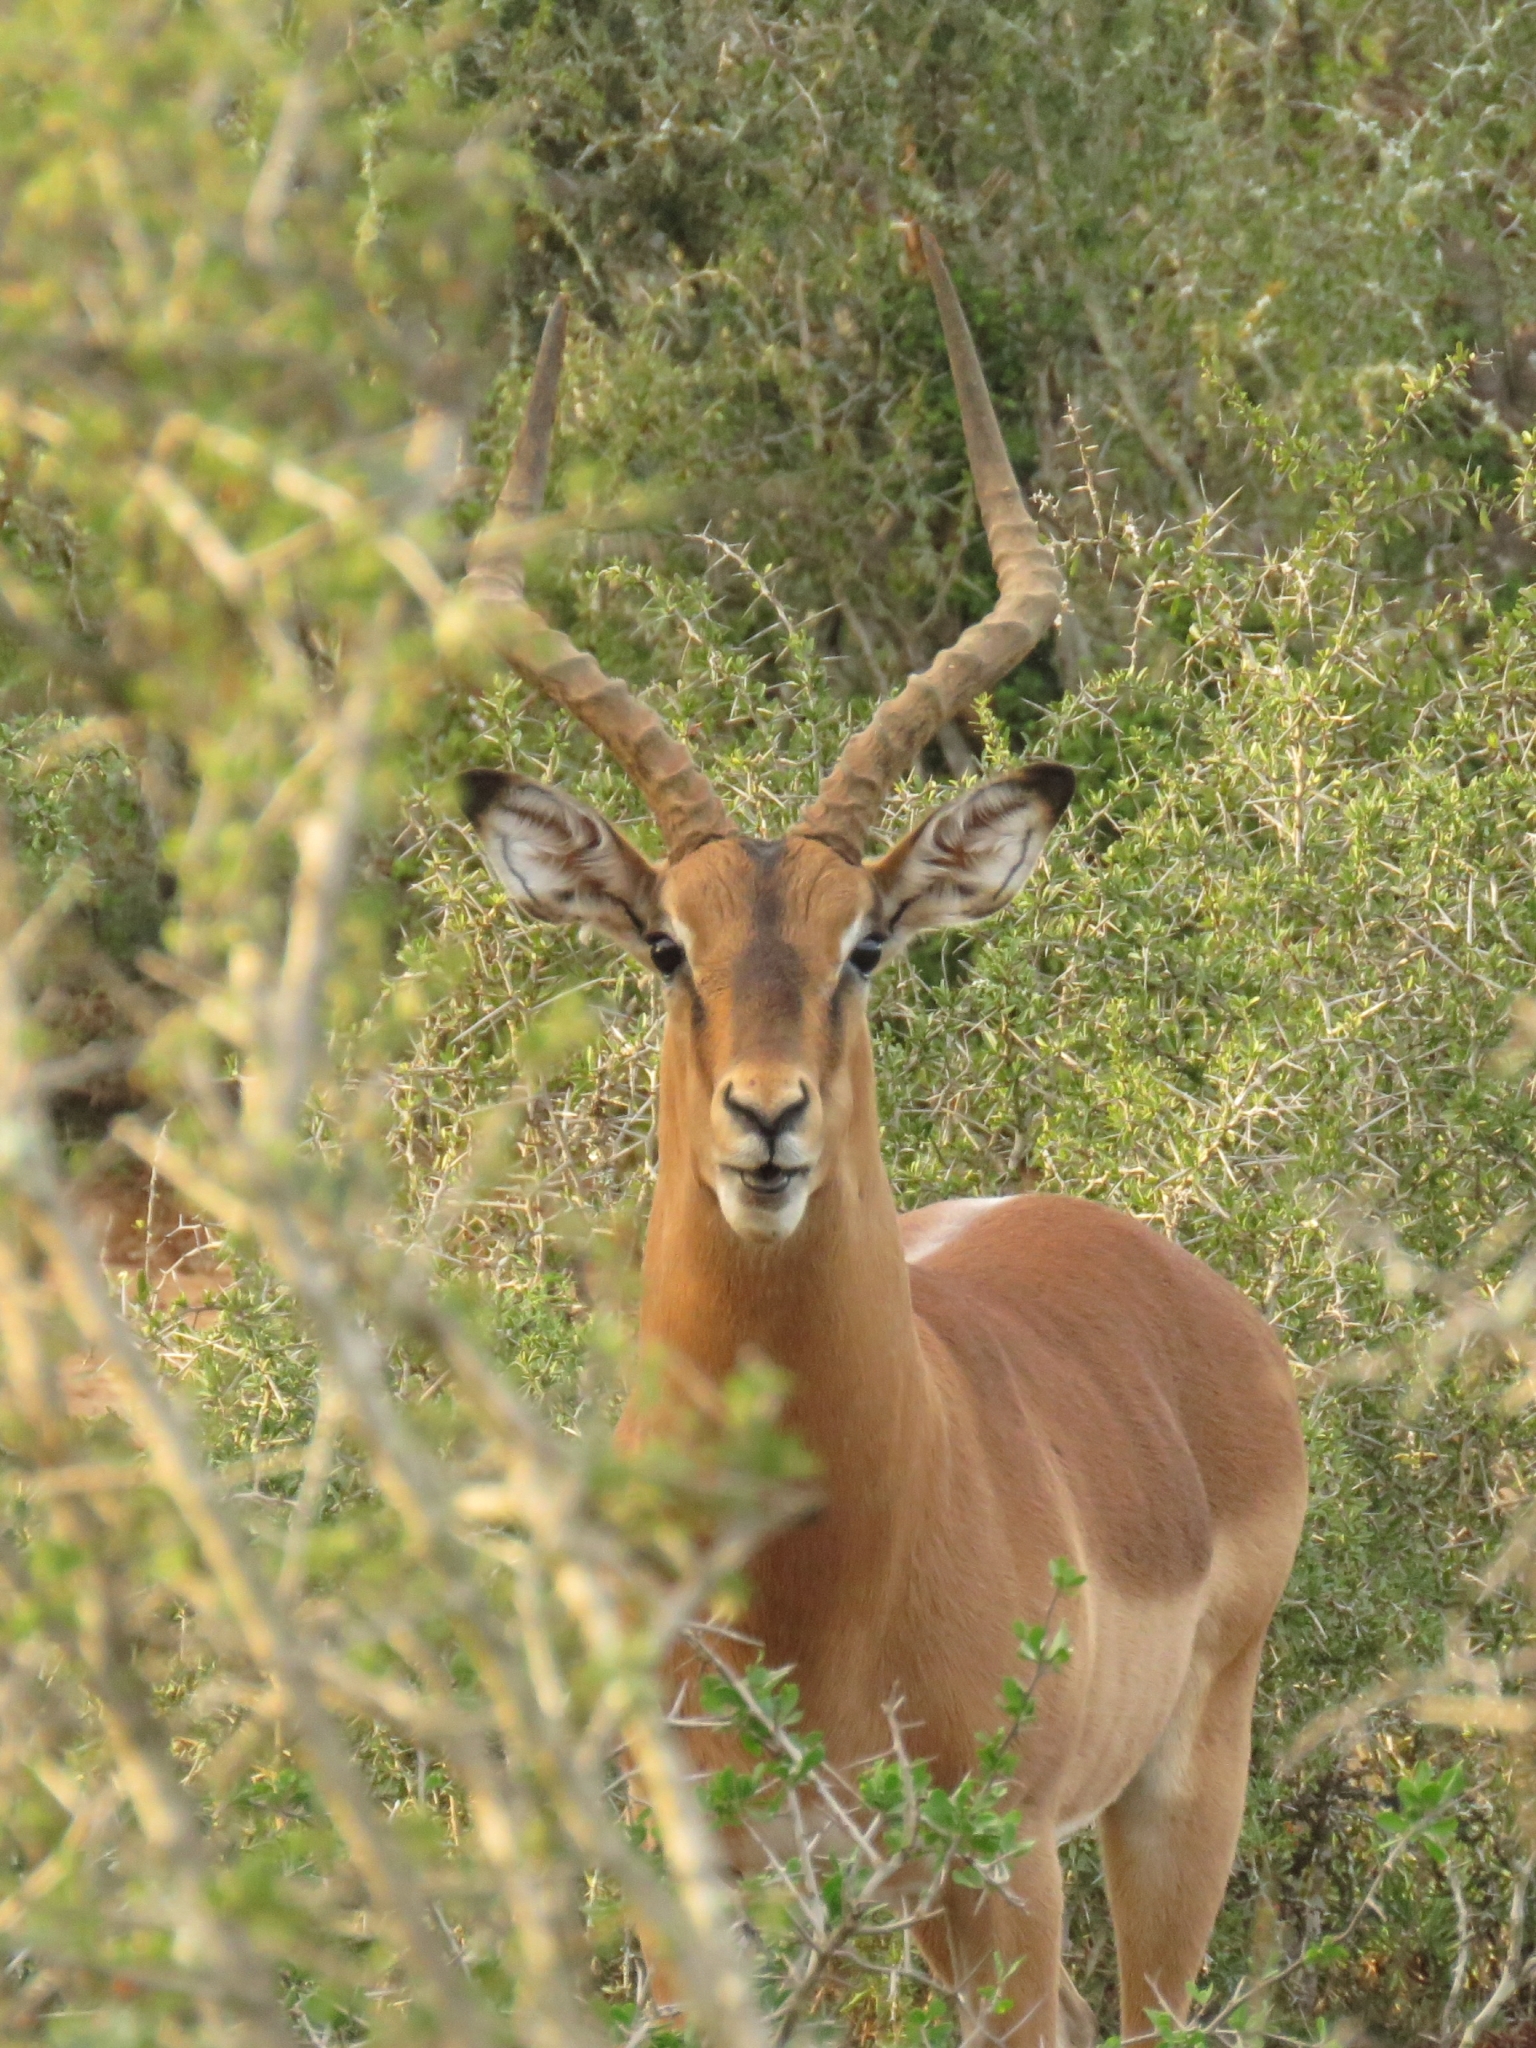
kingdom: Animalia
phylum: Chordata
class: Mammalia
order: Artiodactyla
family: Bovidae
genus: Aepyceros
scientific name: Aepyceros melampus
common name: Impala
